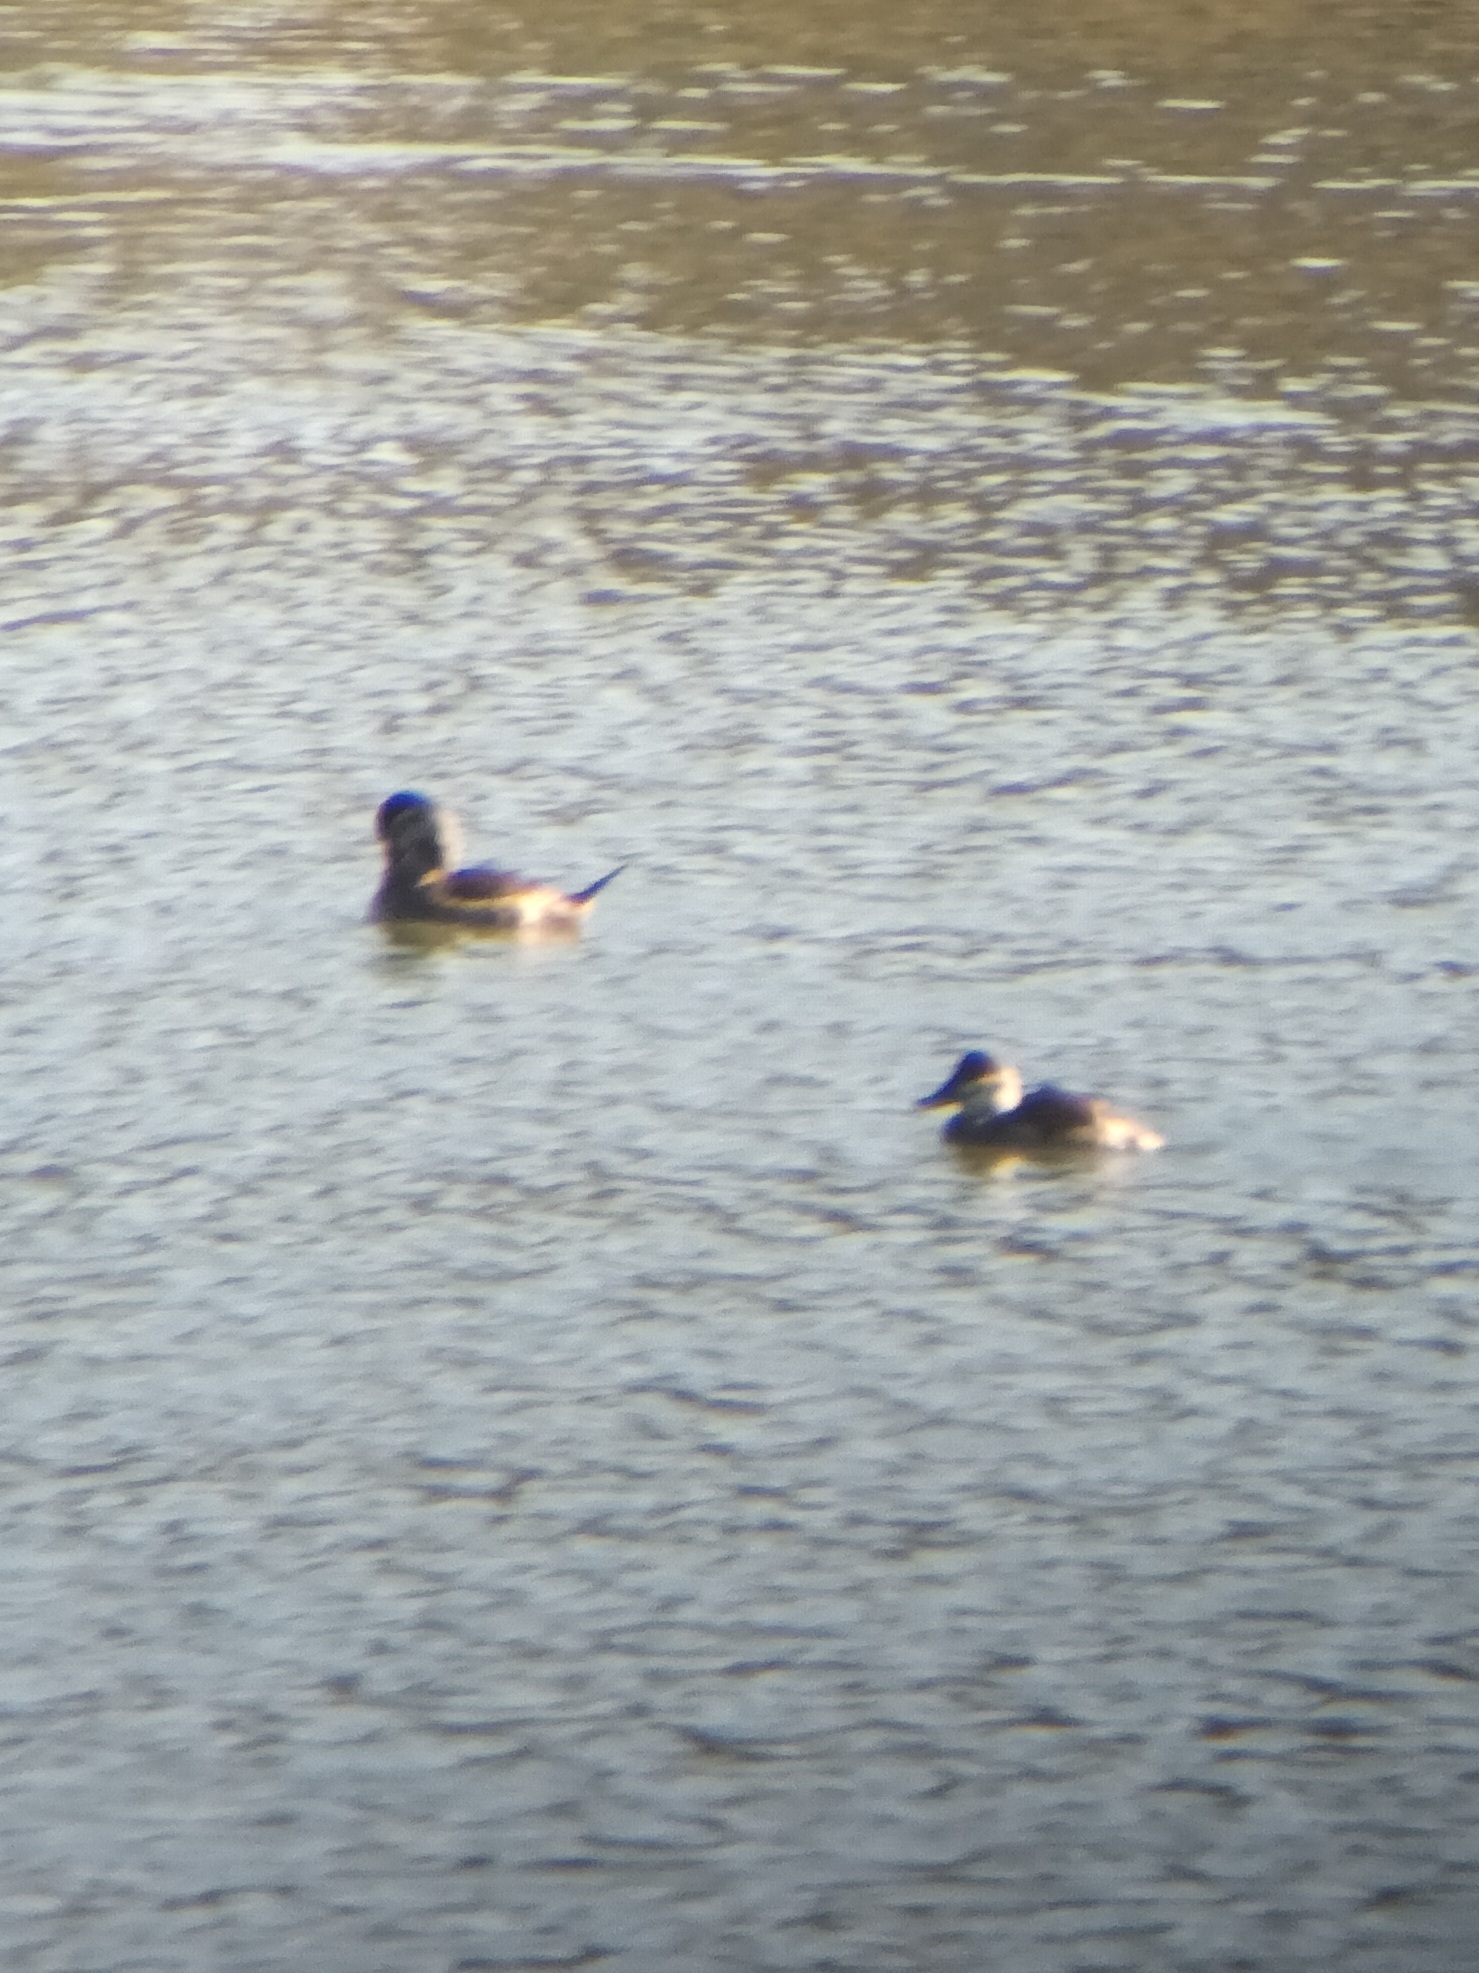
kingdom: Animalia
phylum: Chordata
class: Aves
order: Anseriformes
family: Anatidae
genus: Oxyura
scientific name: Oxyura jamaicensis
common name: Ruddy duck
